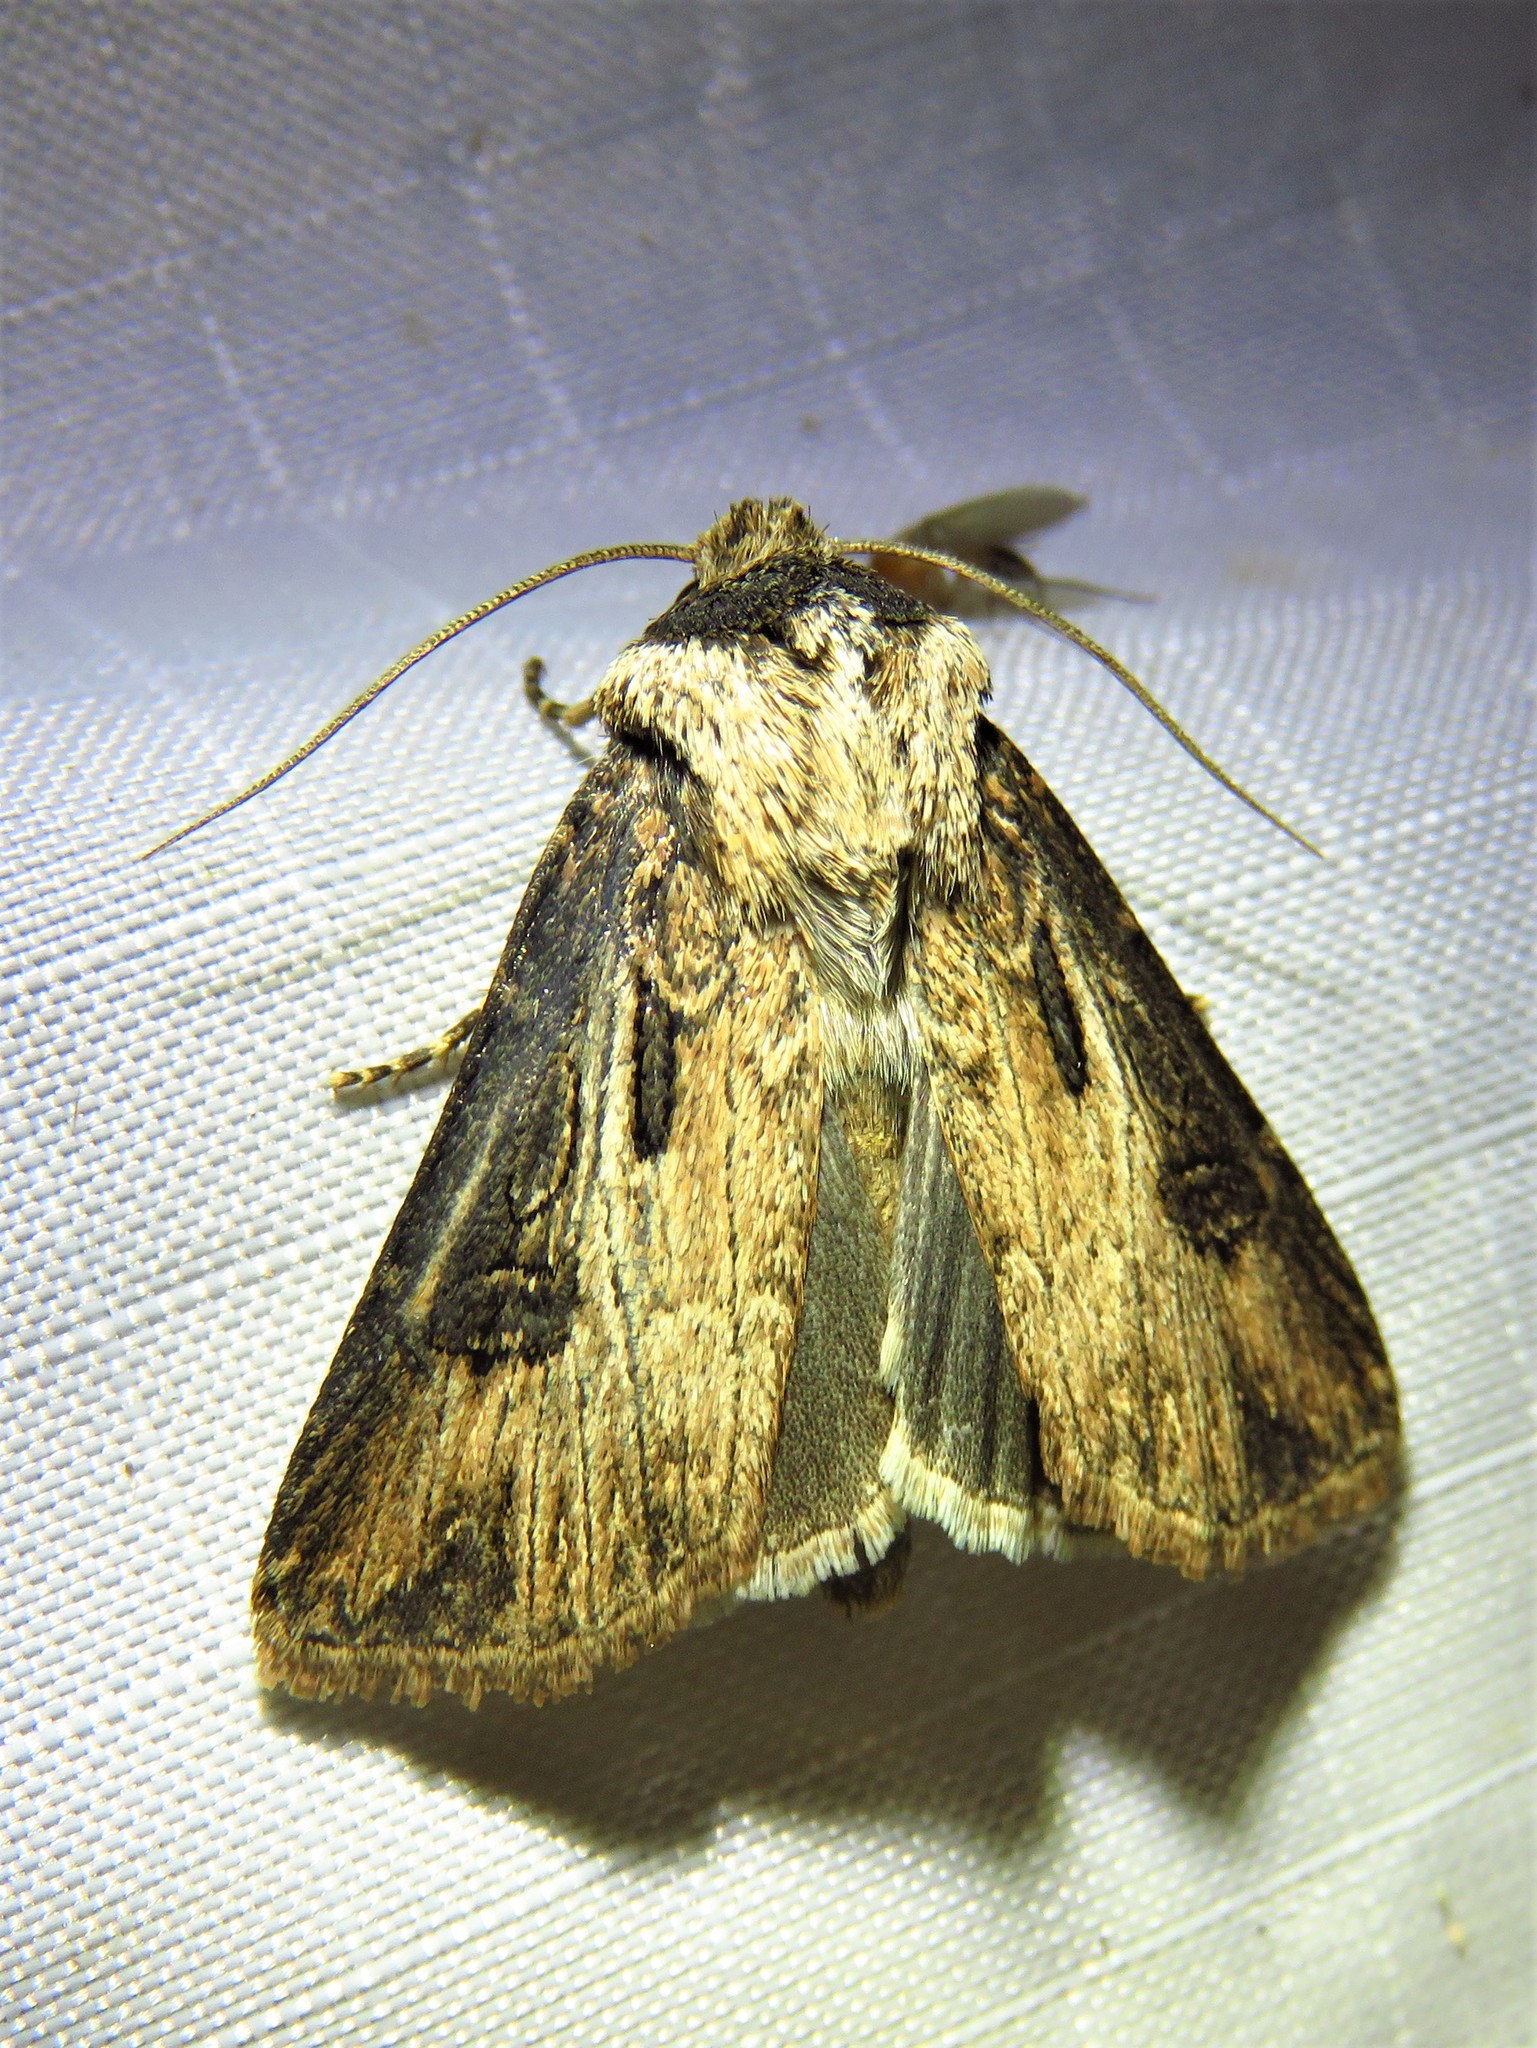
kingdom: Animalia
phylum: Arthropoda
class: Insecta
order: Lepidoptera
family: Noctuidae
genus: Agrotis
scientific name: Agrotis venerabilis
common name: Venerable dart
